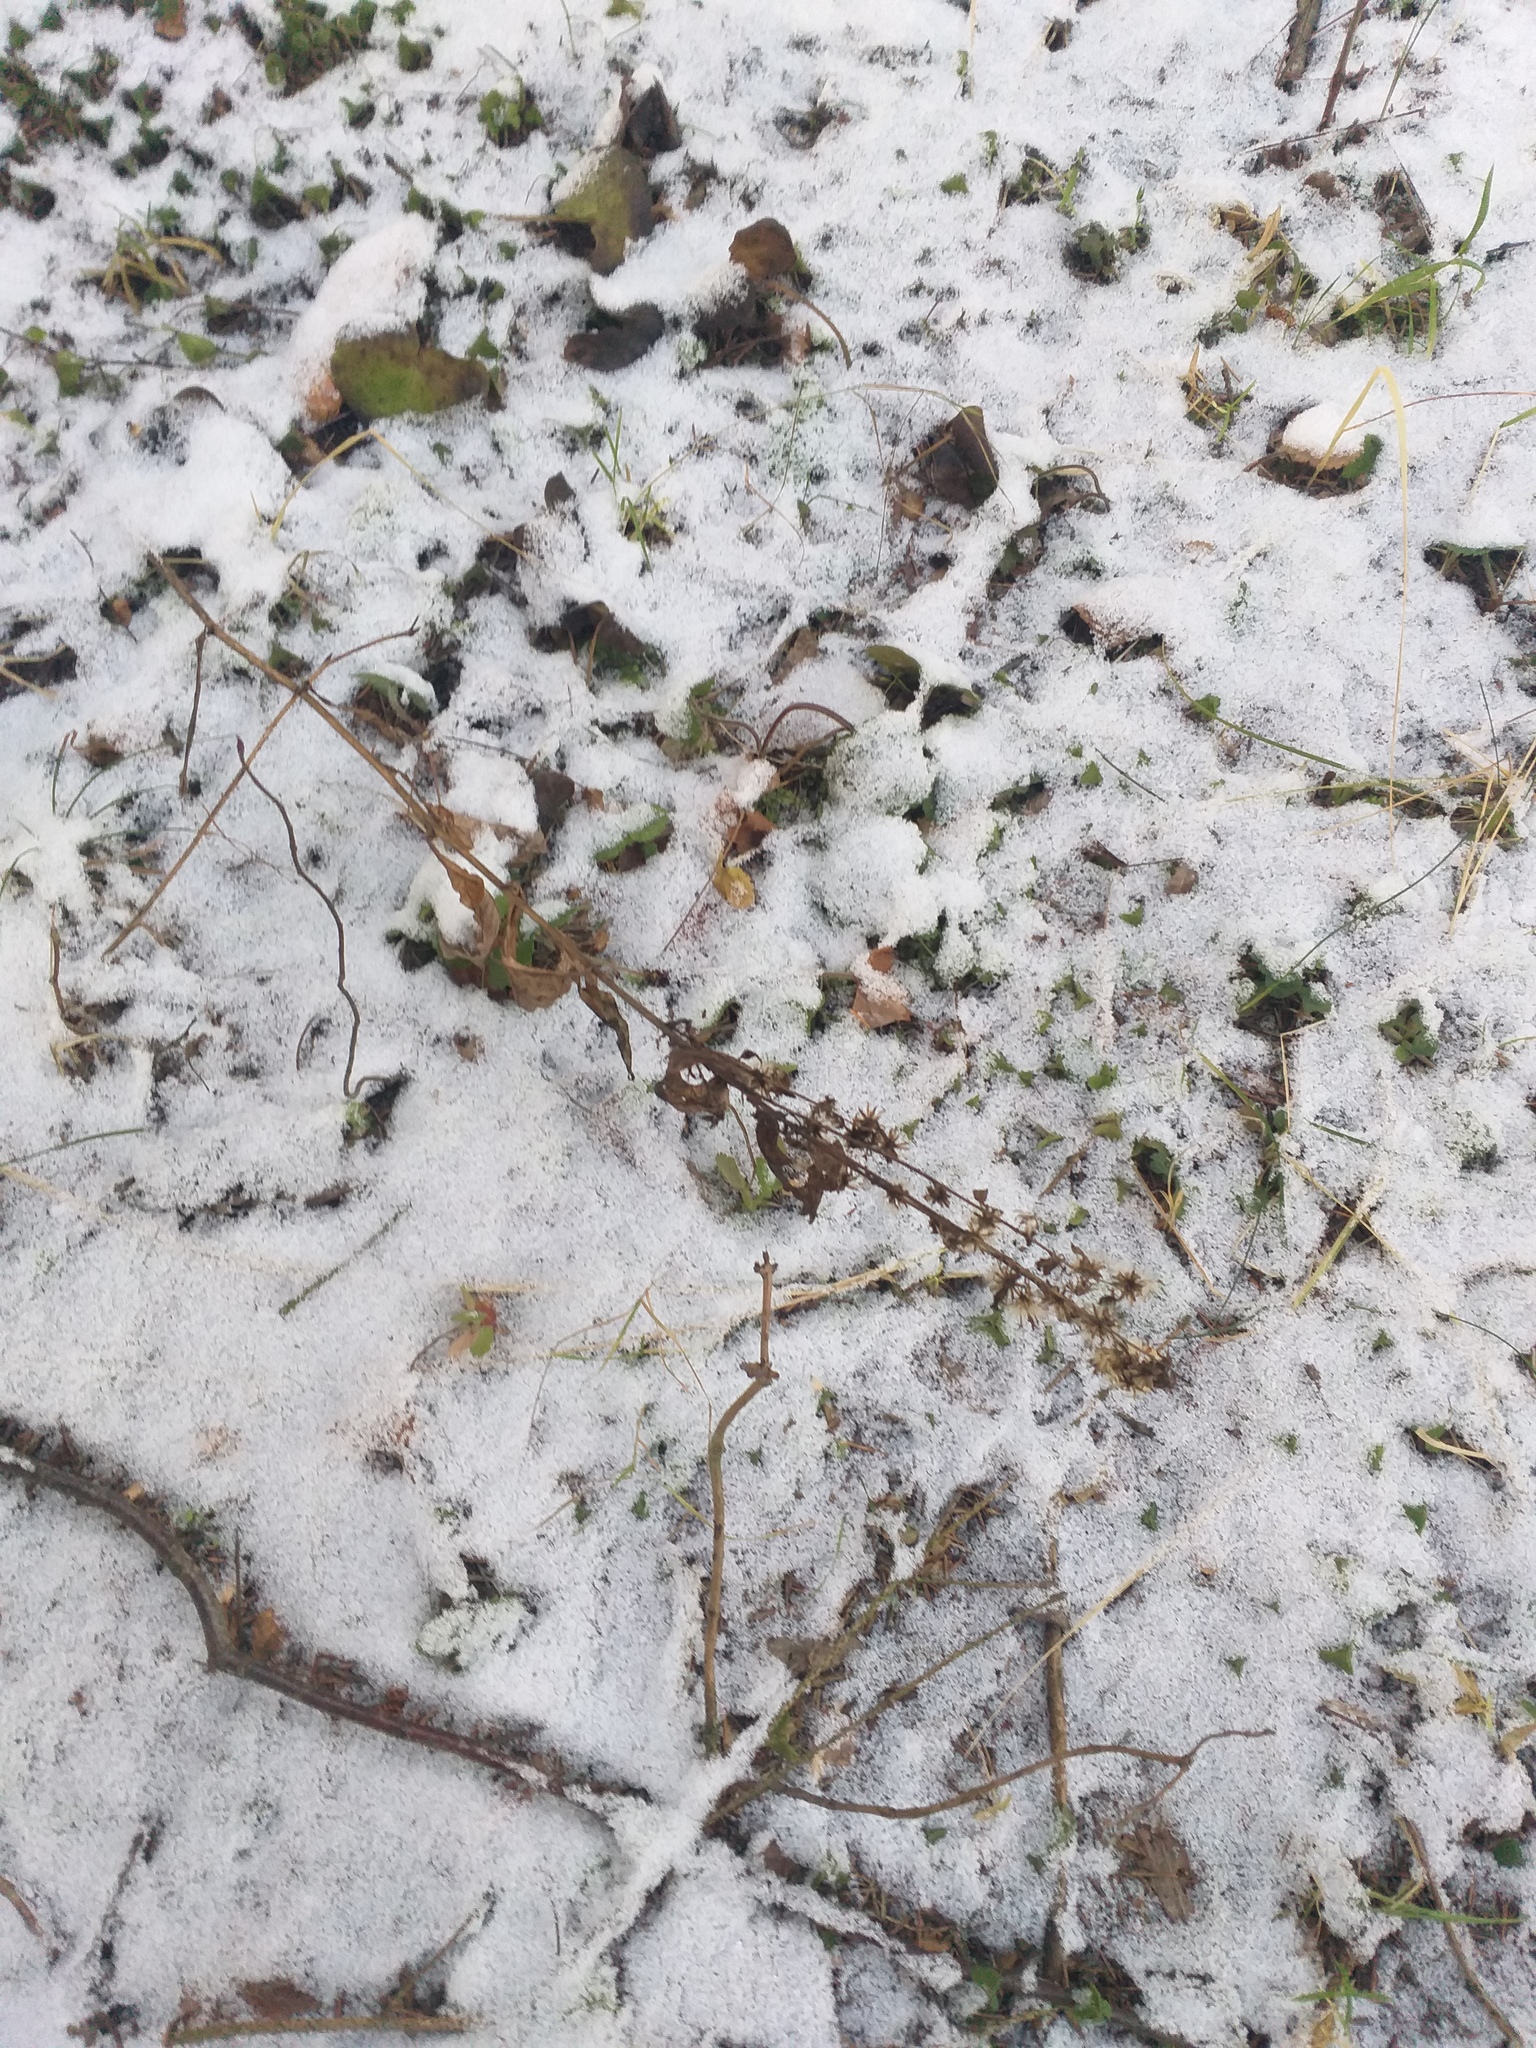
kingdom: Plantae
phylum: Tracheophyta
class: Magnoliopsida
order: Asterales
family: Asteraceae
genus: Solidago
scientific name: Solidago virgaurea
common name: Goldenrod
